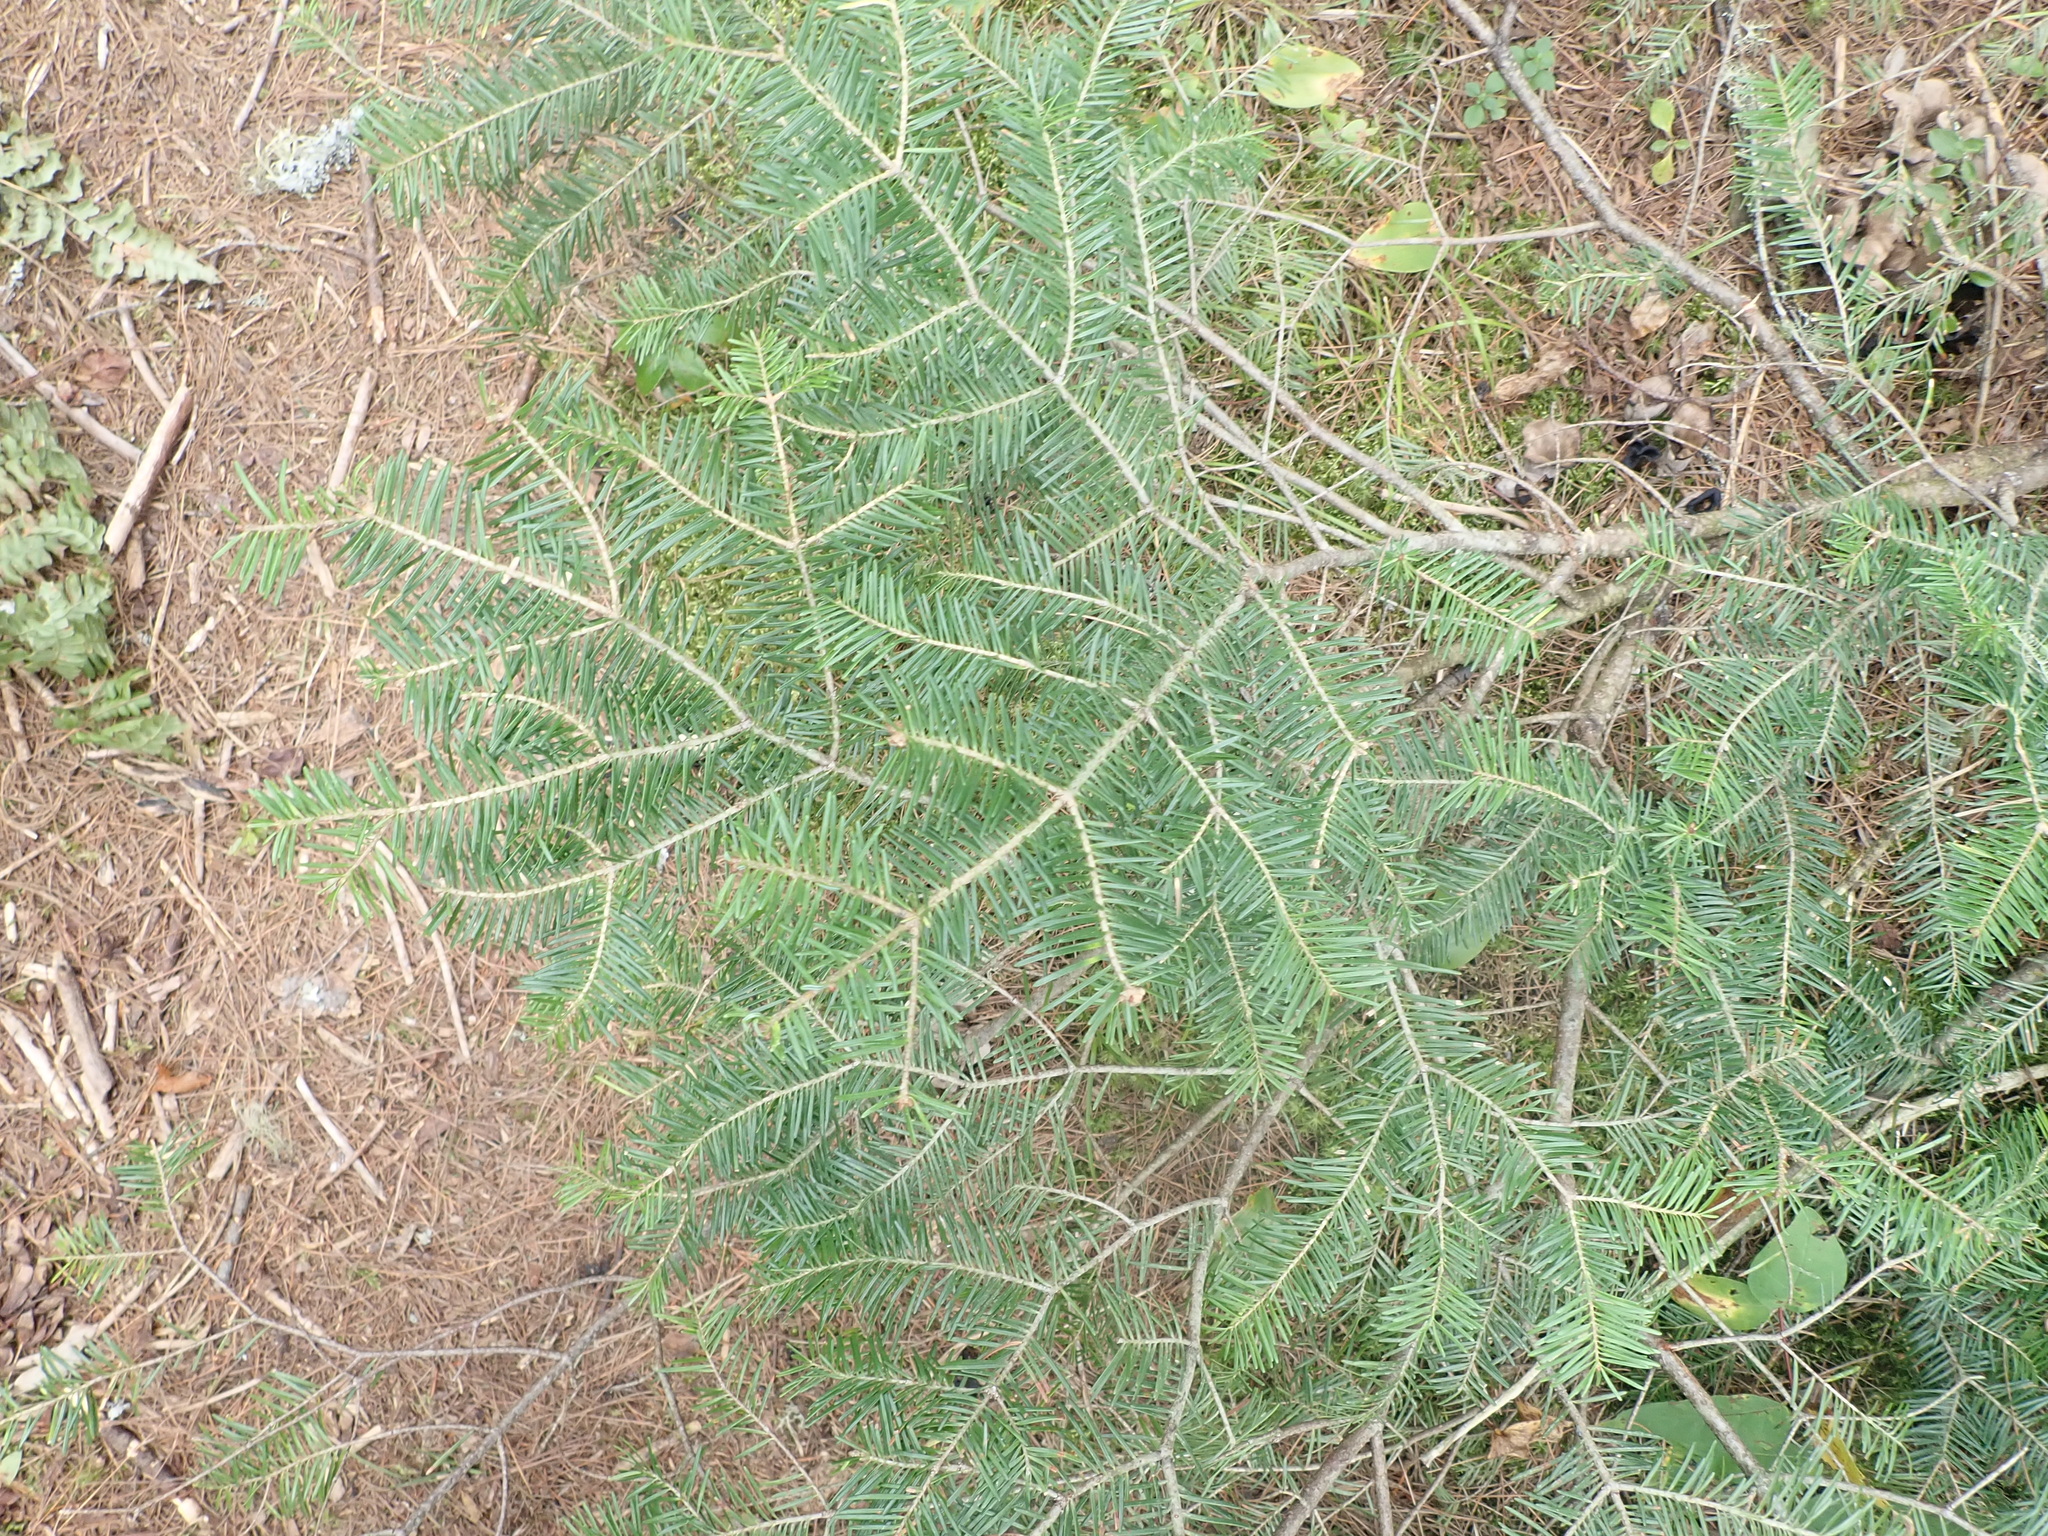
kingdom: Plantae
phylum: Tracheophyta
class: Pinopsida
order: Pinales
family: Pinaceae
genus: Abies
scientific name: Abies balsamea
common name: Balsam fir
